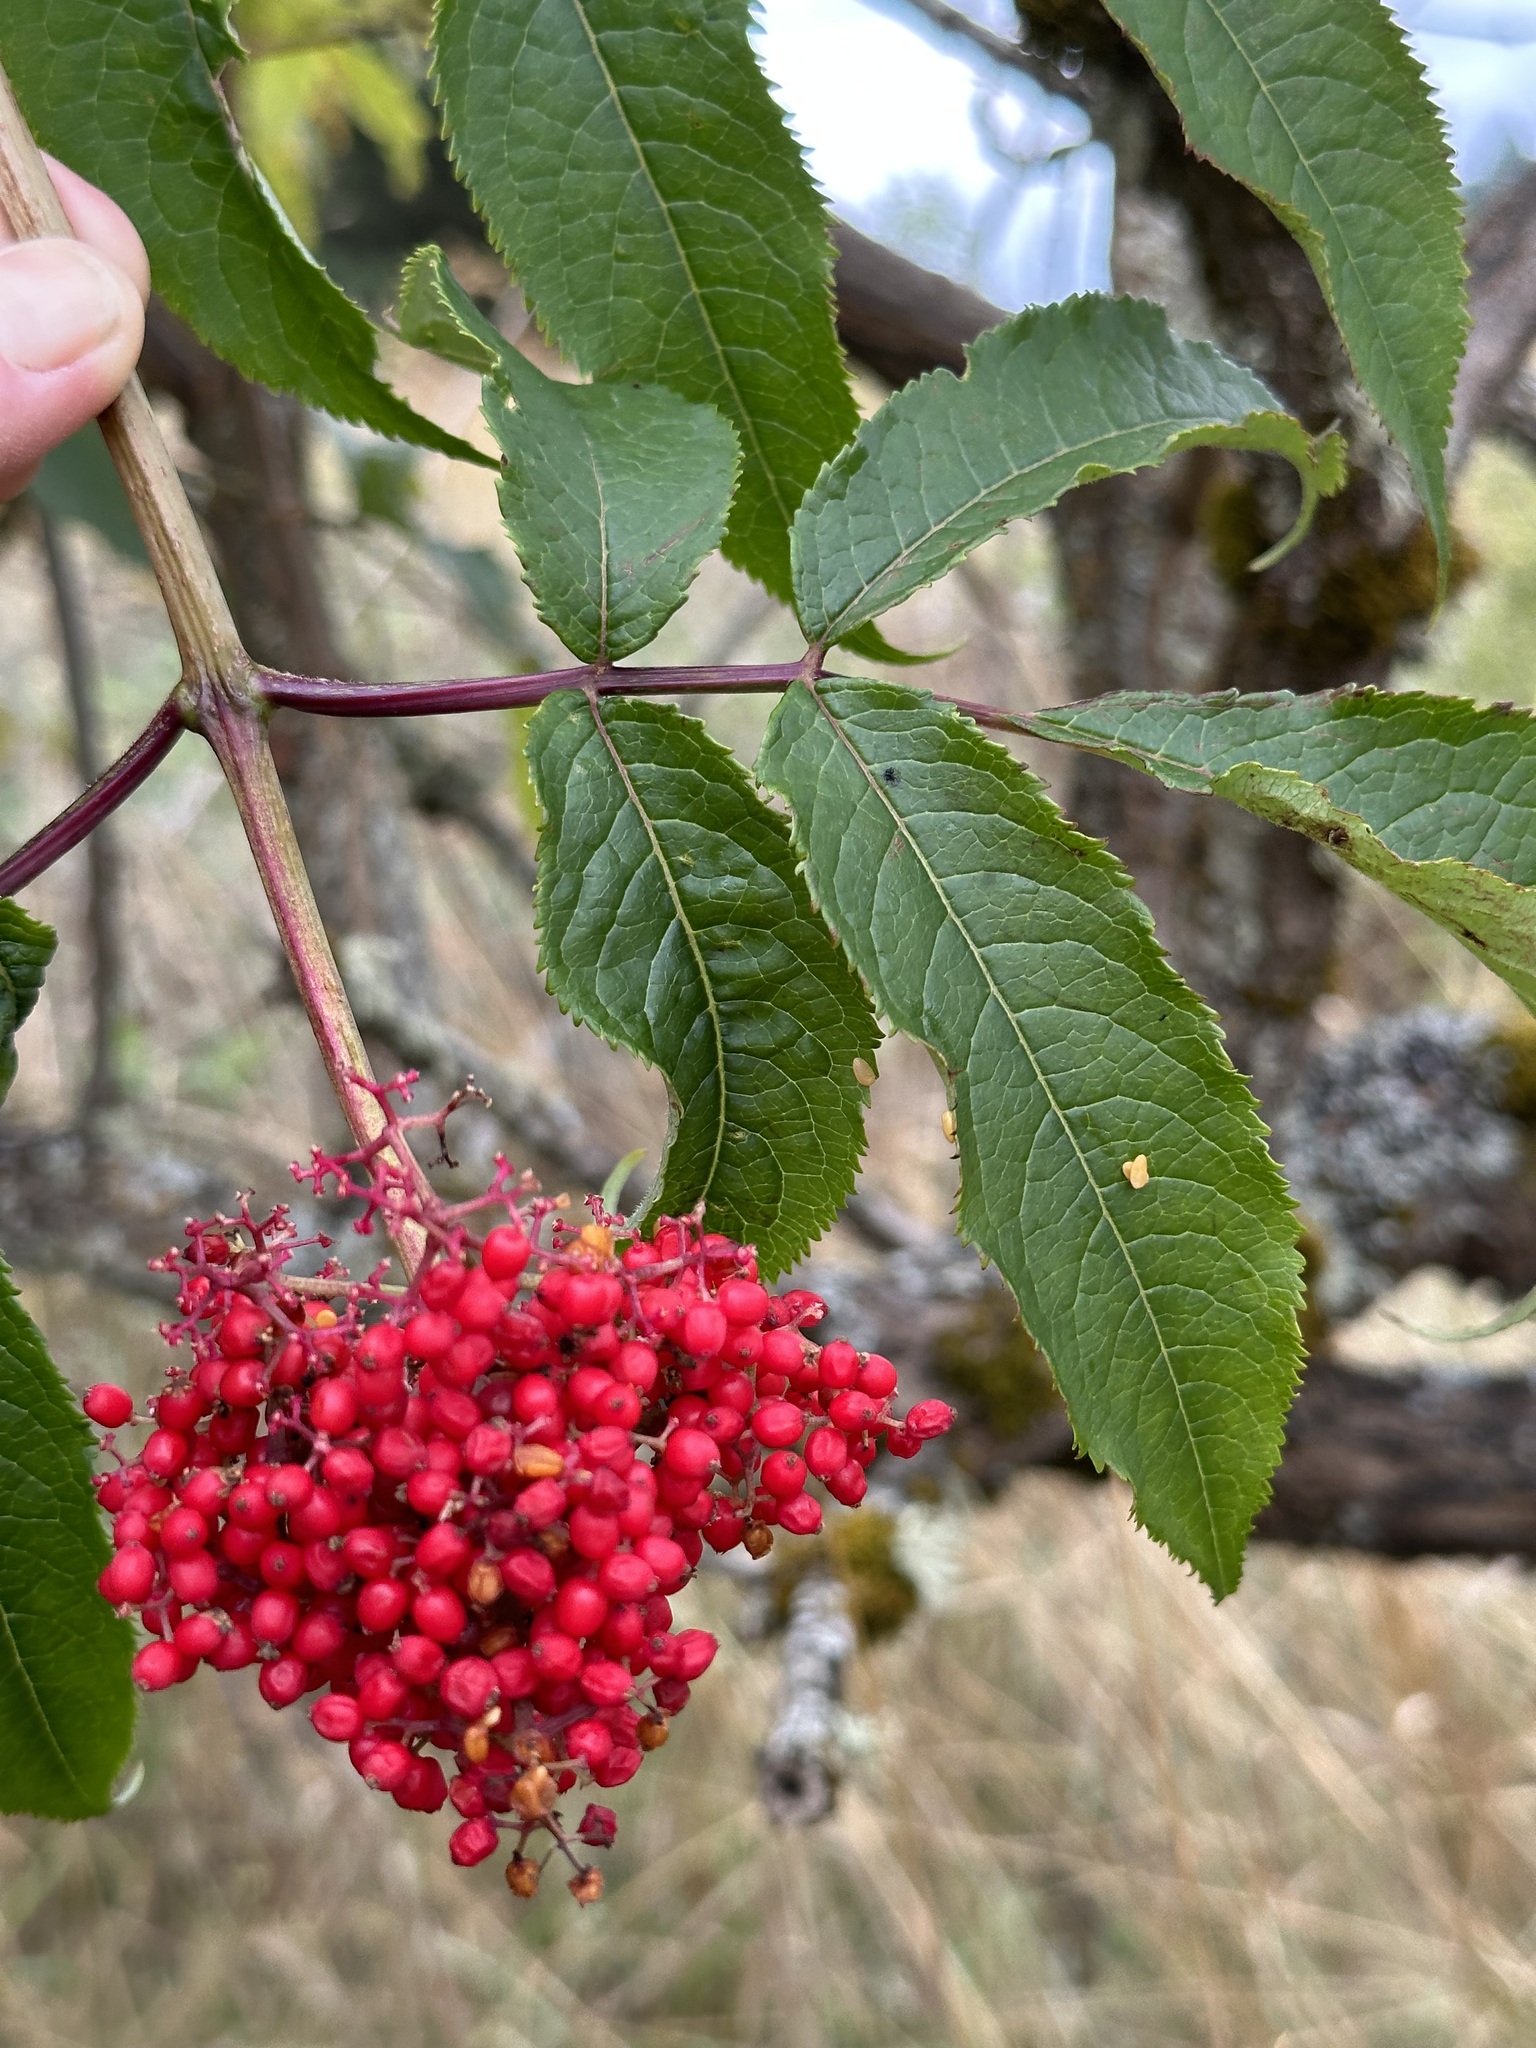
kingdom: Plantae
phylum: Tracheophyta
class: Magnoliopsida
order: Dipsacales
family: Viburnaceae
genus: Sambucus
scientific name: Sambucus racemosa
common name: Red-berried elder
